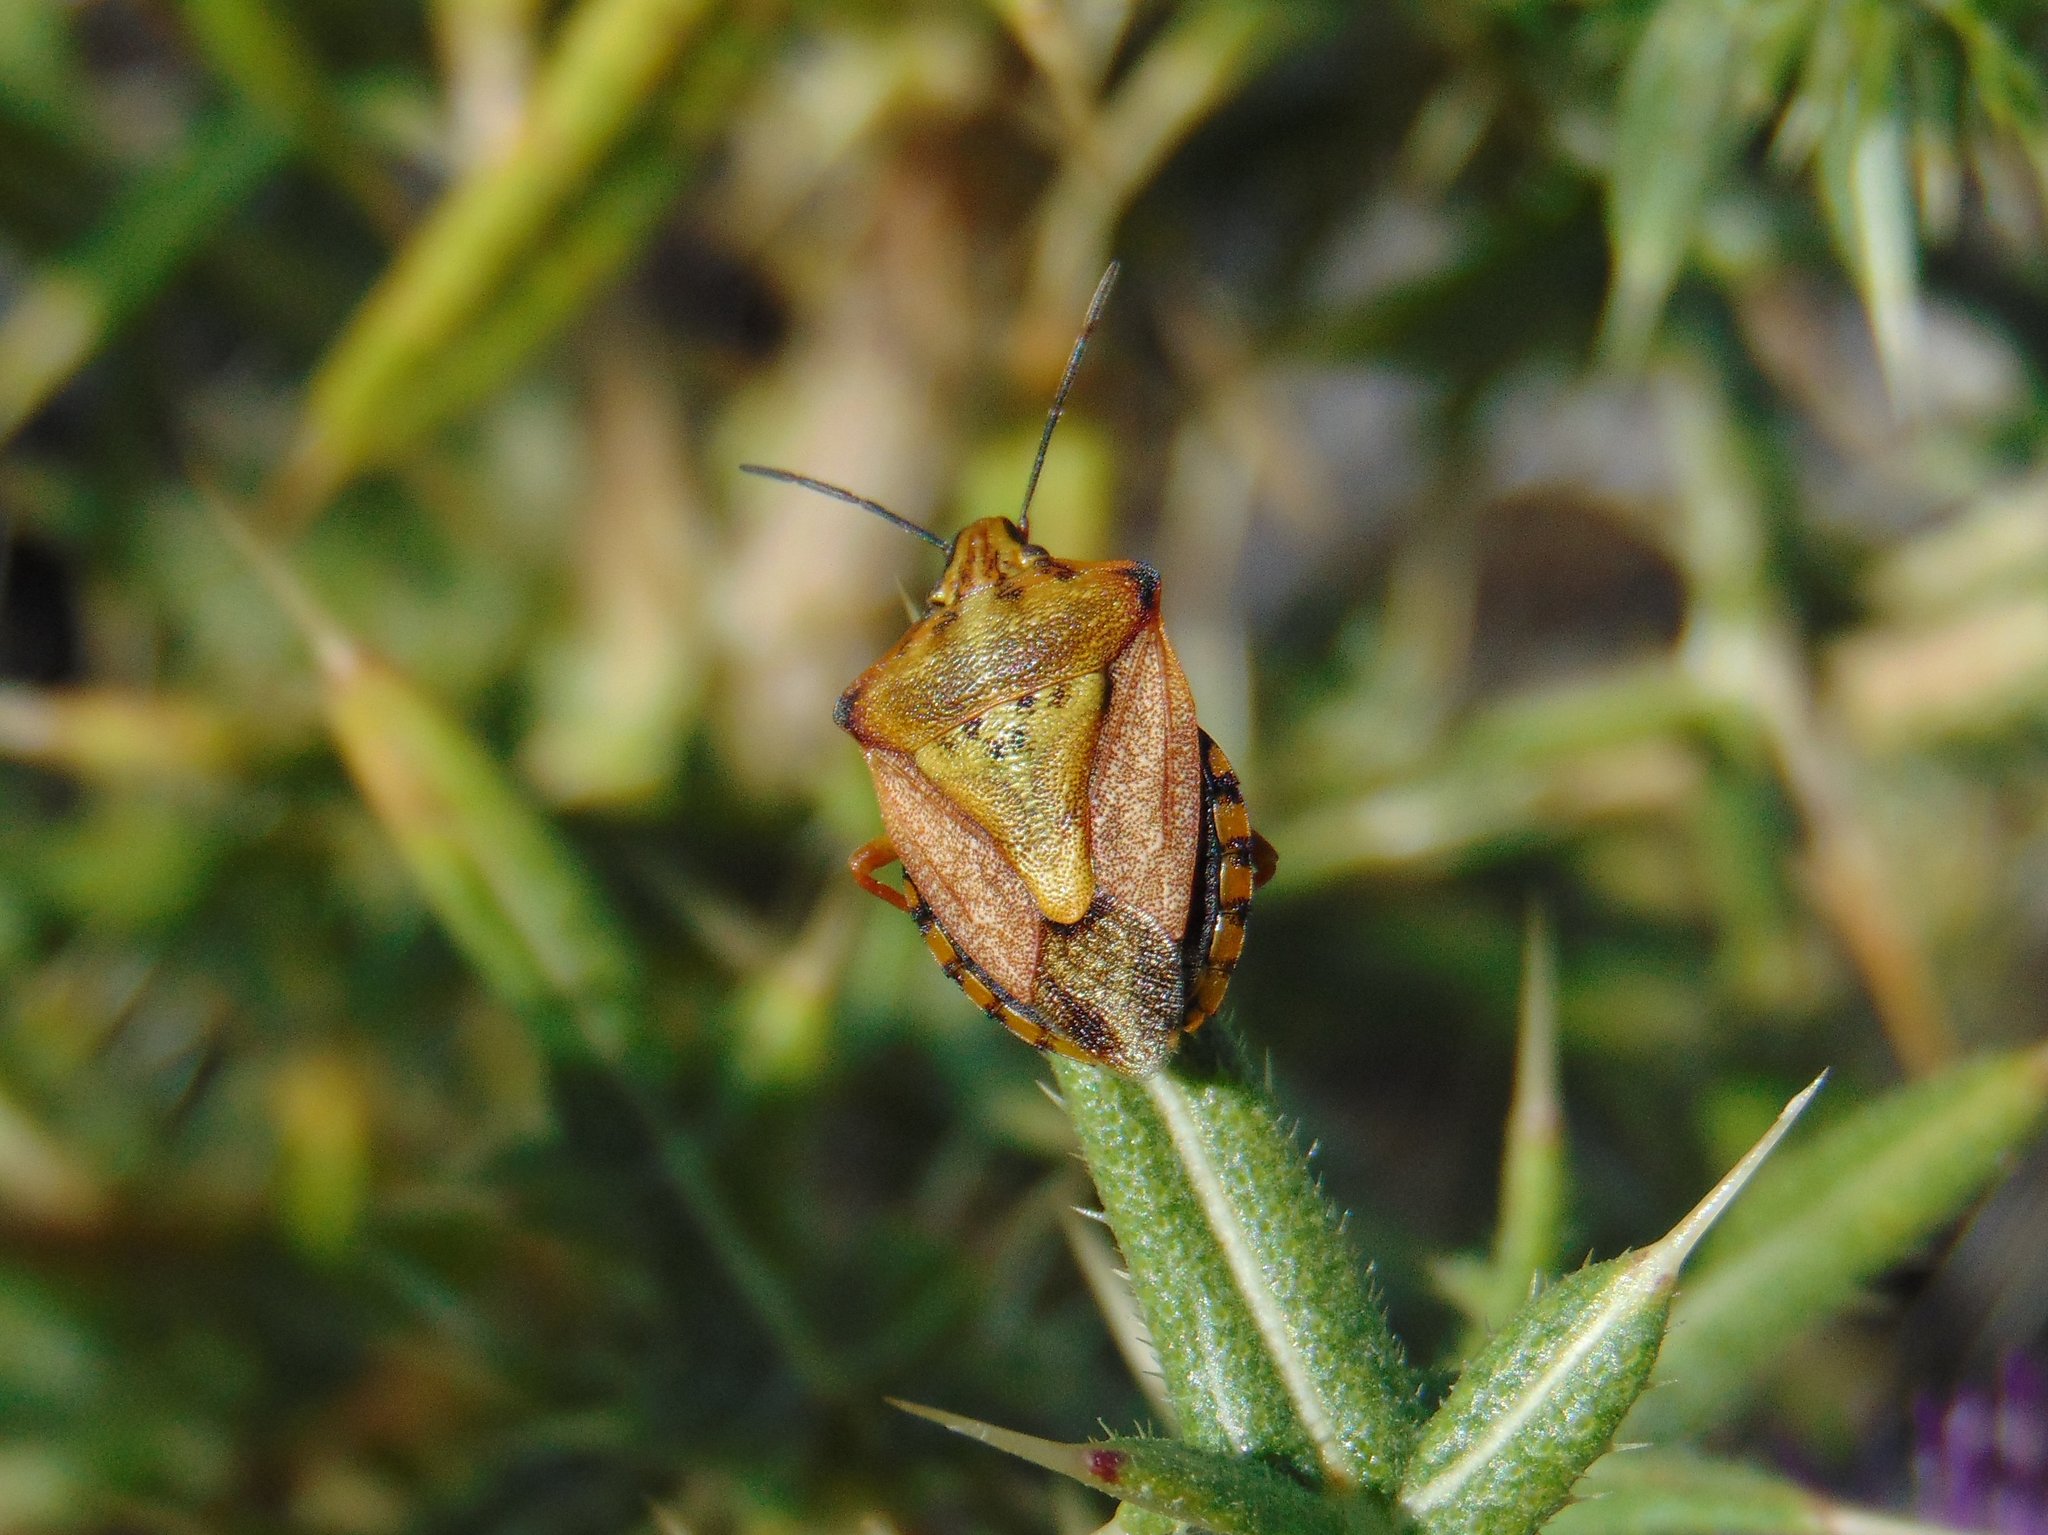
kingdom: Animalia
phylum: Arthropoda
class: Insecta
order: Hemiptera
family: Pentatomidae
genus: Carpocoris
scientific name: Carpocoris mediterraneus
